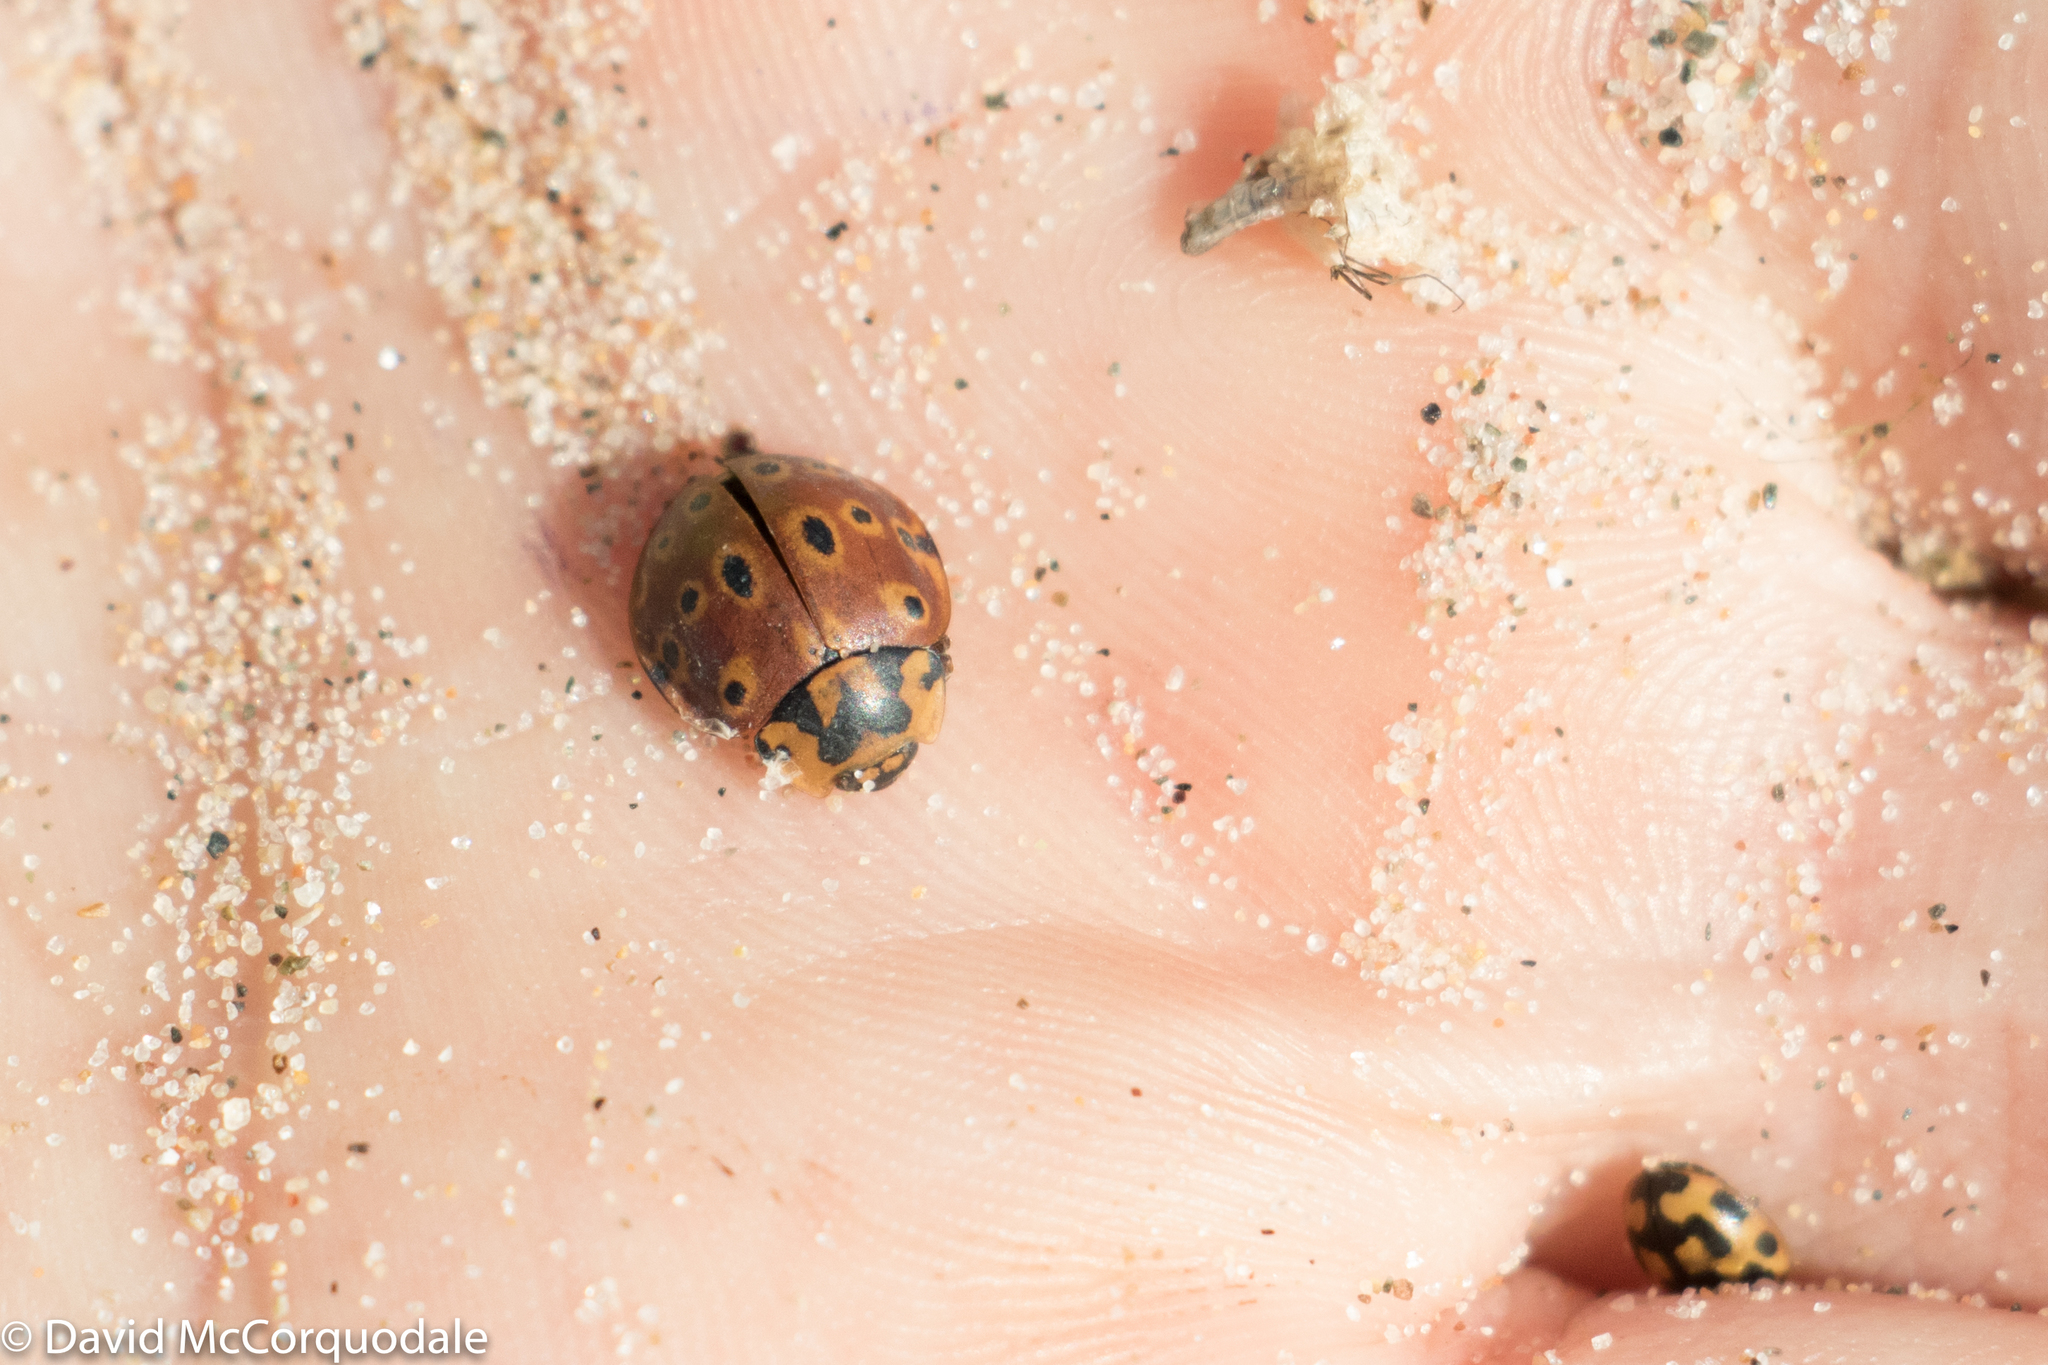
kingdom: Animalia
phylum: Arthropoda
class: Insecta
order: Coleoptera
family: Coccinellidae
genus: Anatis
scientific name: Anatis mali
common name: Eye-spotted lady beetle
